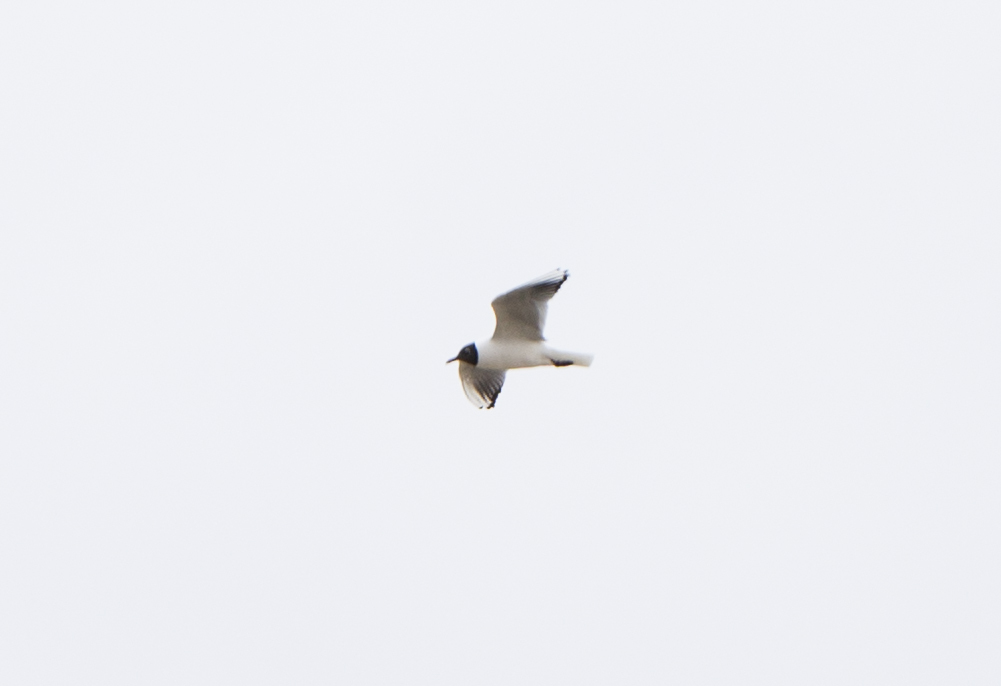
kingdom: Animalia
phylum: Chordata
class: Aves
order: Charadriiformes
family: Laridae
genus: Chroicocephalus
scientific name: Chroicocephalus ridibundus
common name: Black-headed gull
